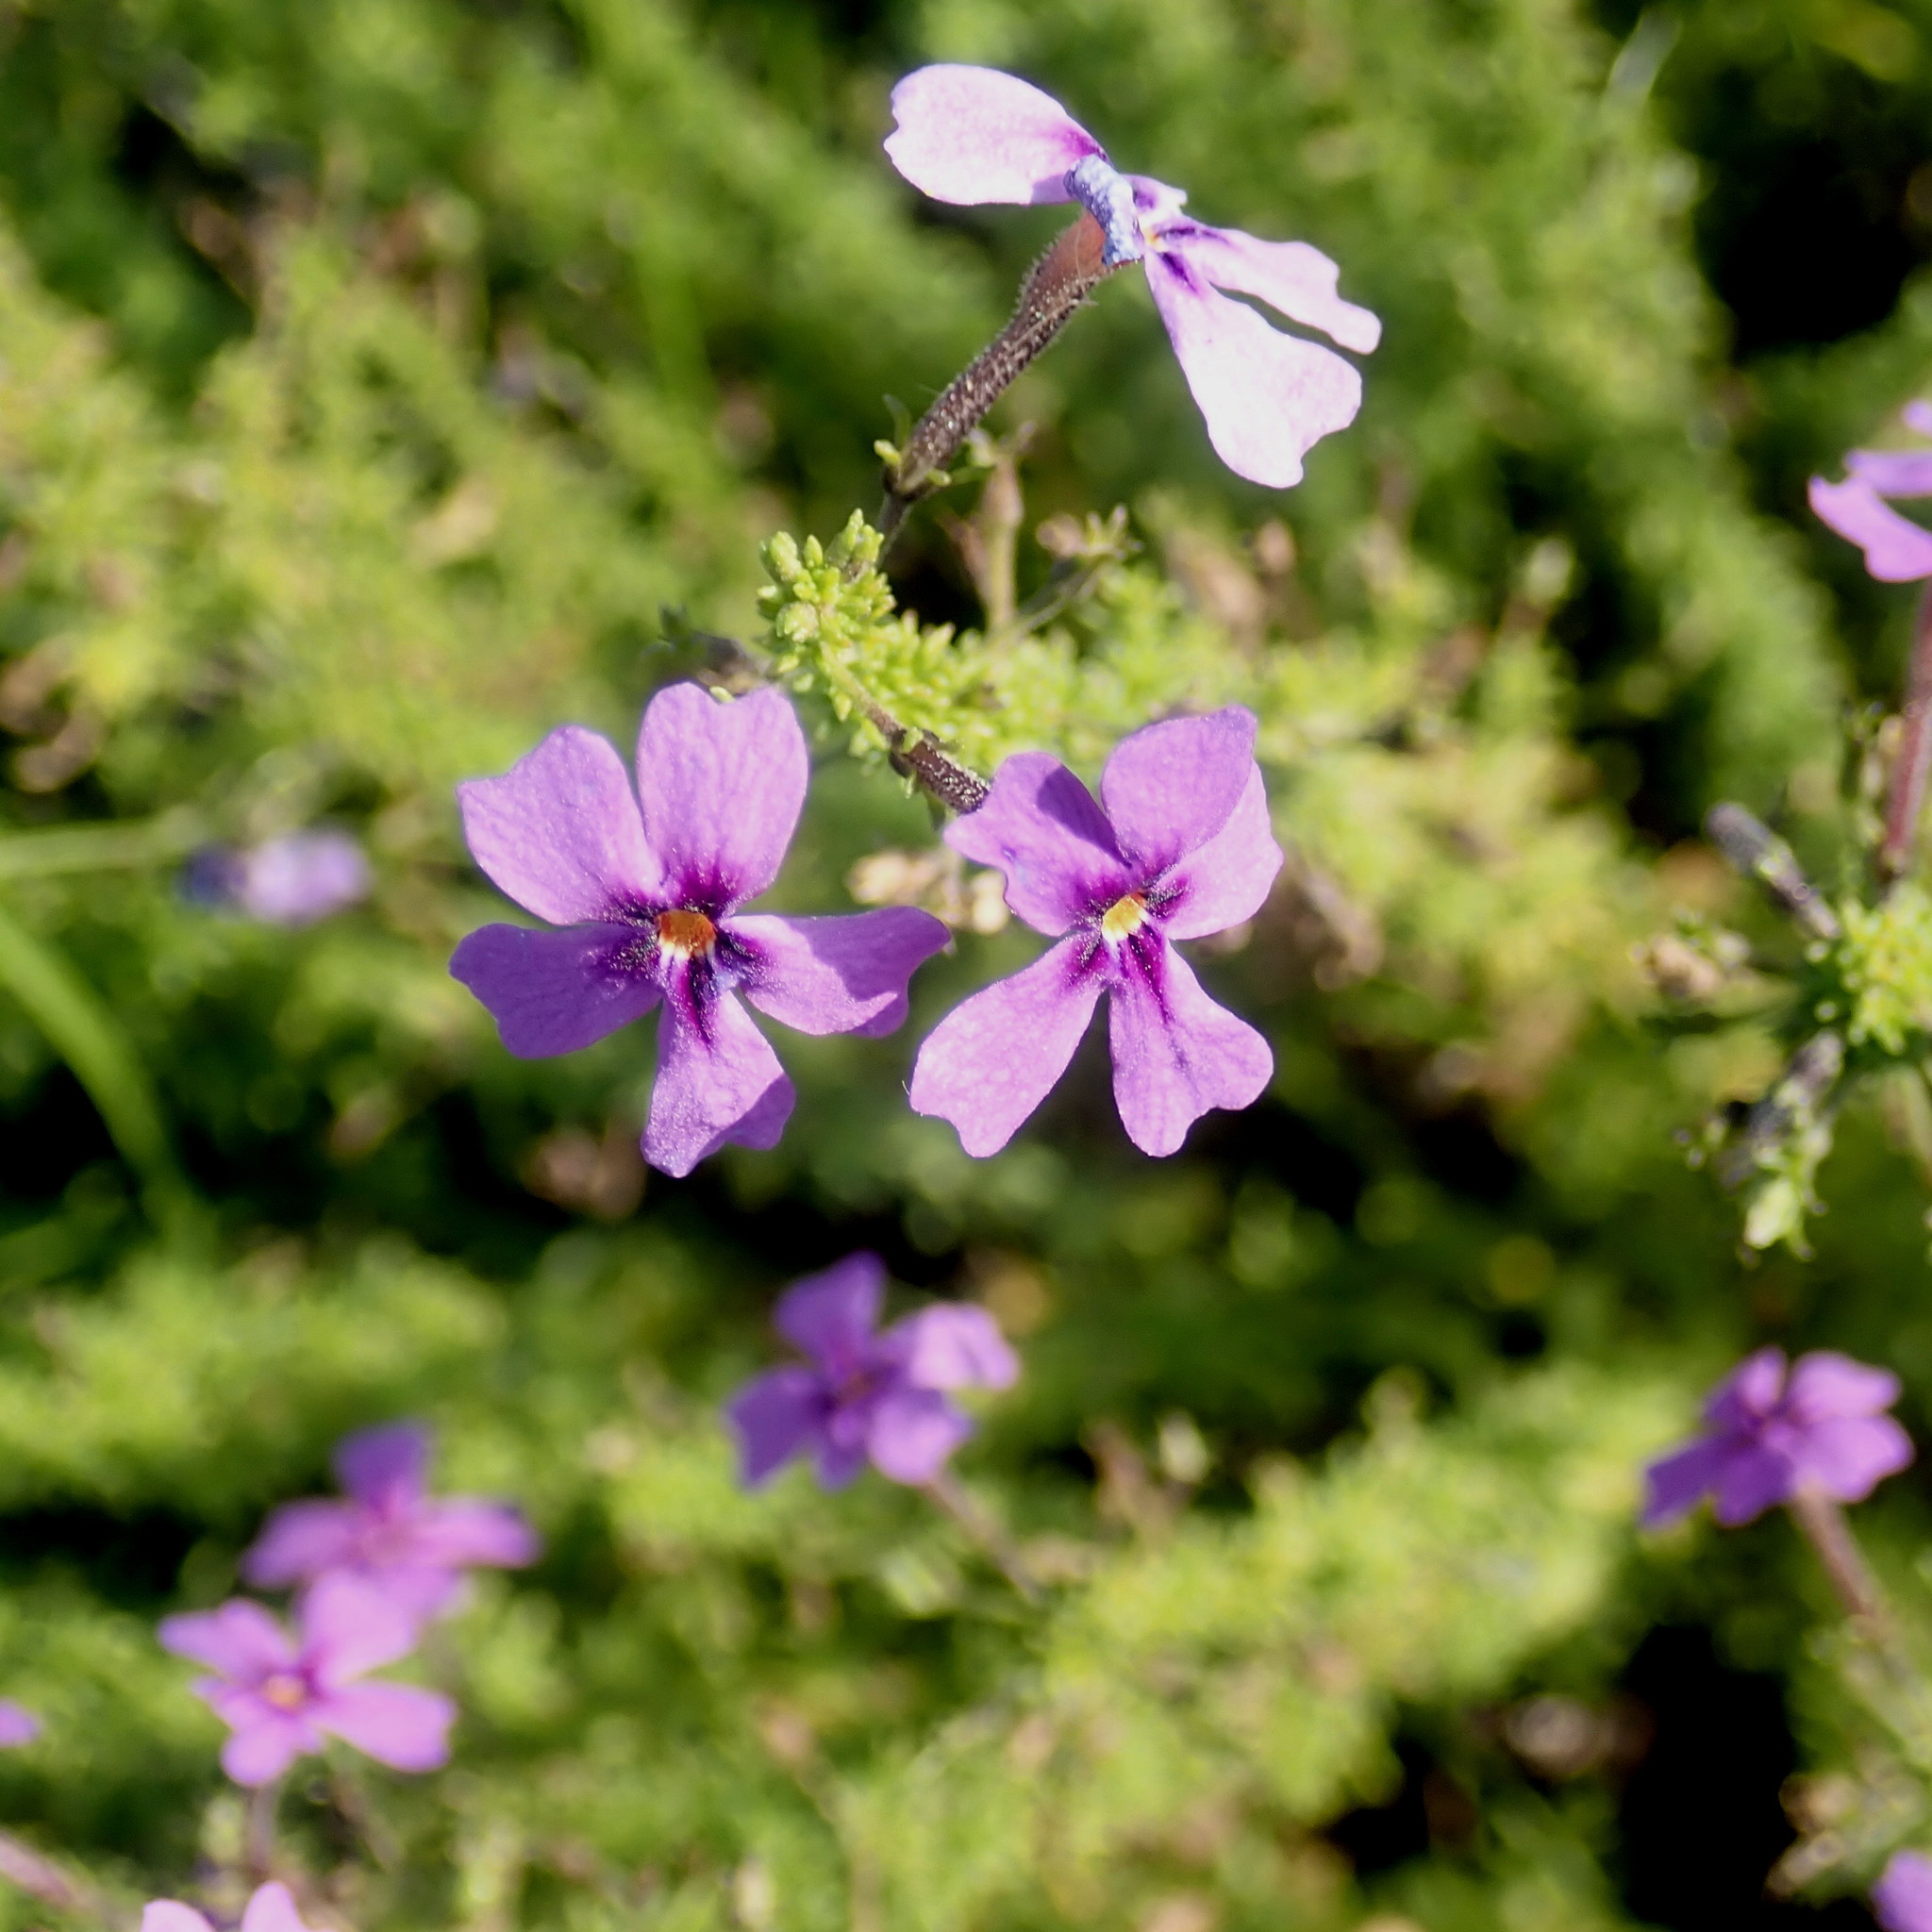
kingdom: Plantae
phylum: Tracheophyta
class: Magnoliopsida
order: Lamiales
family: Scrophulariaceae
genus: Jamesbrittenia
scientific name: Jamesbrittenia microphylla
